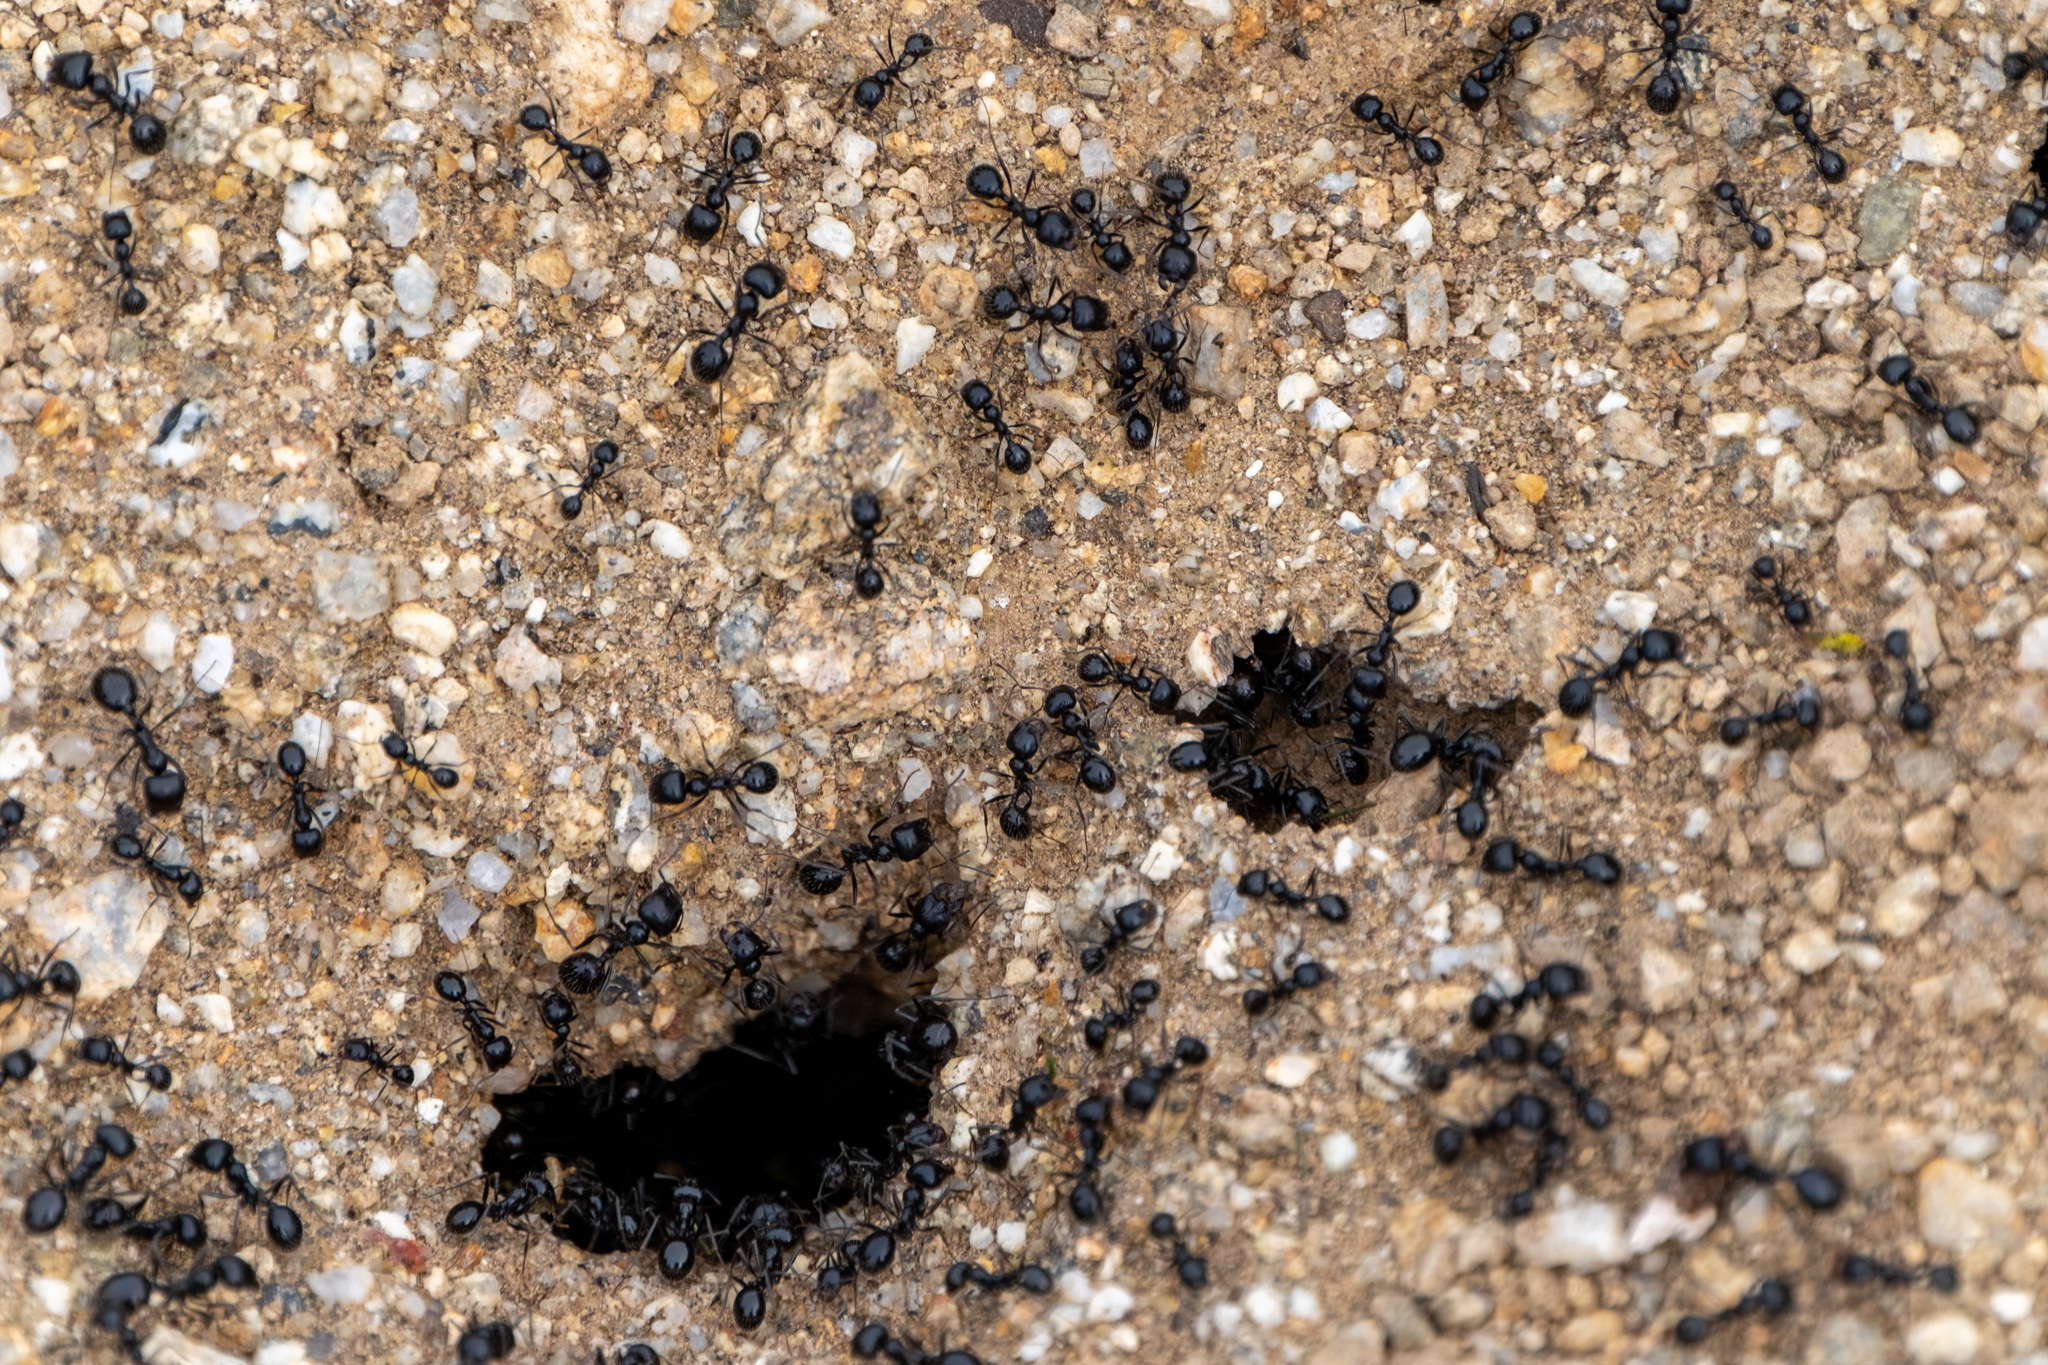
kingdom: Animalia
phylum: Arthropoda
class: Insecta
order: Hymenoptera
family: Formicidae
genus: Messor
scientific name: Messor pergandei
